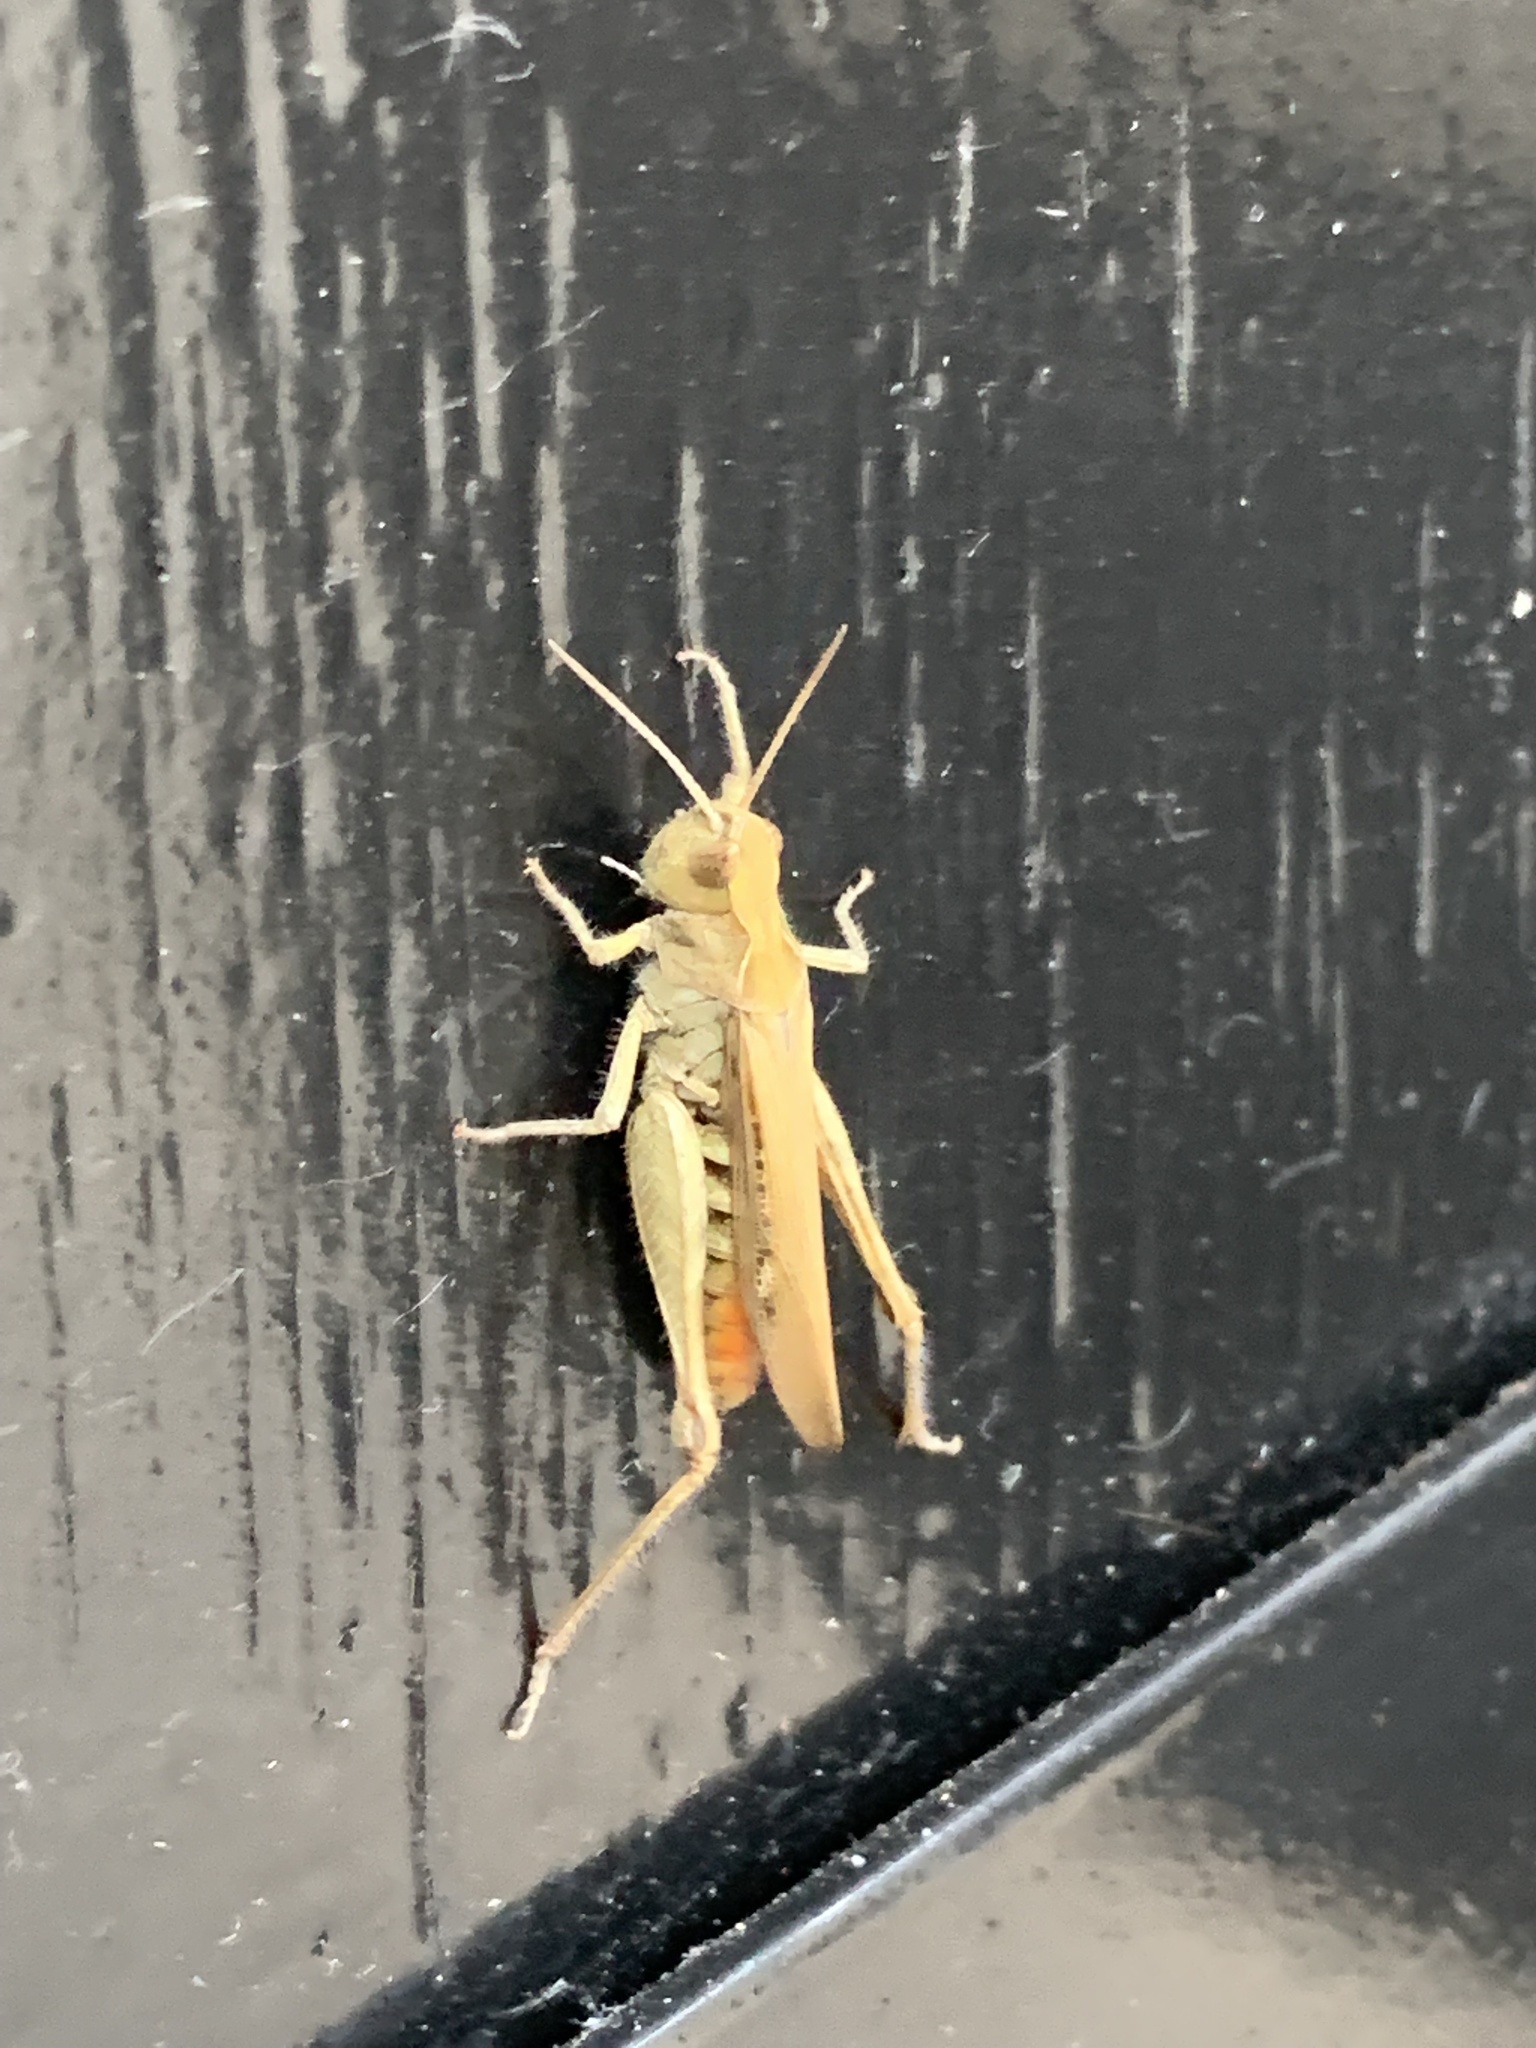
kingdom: Animalia
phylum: Arthropoda
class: Insecta
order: Orthoptera
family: Acrididae
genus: Chorthippus
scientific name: Chorthippus brunneus
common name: Field grasshopper
